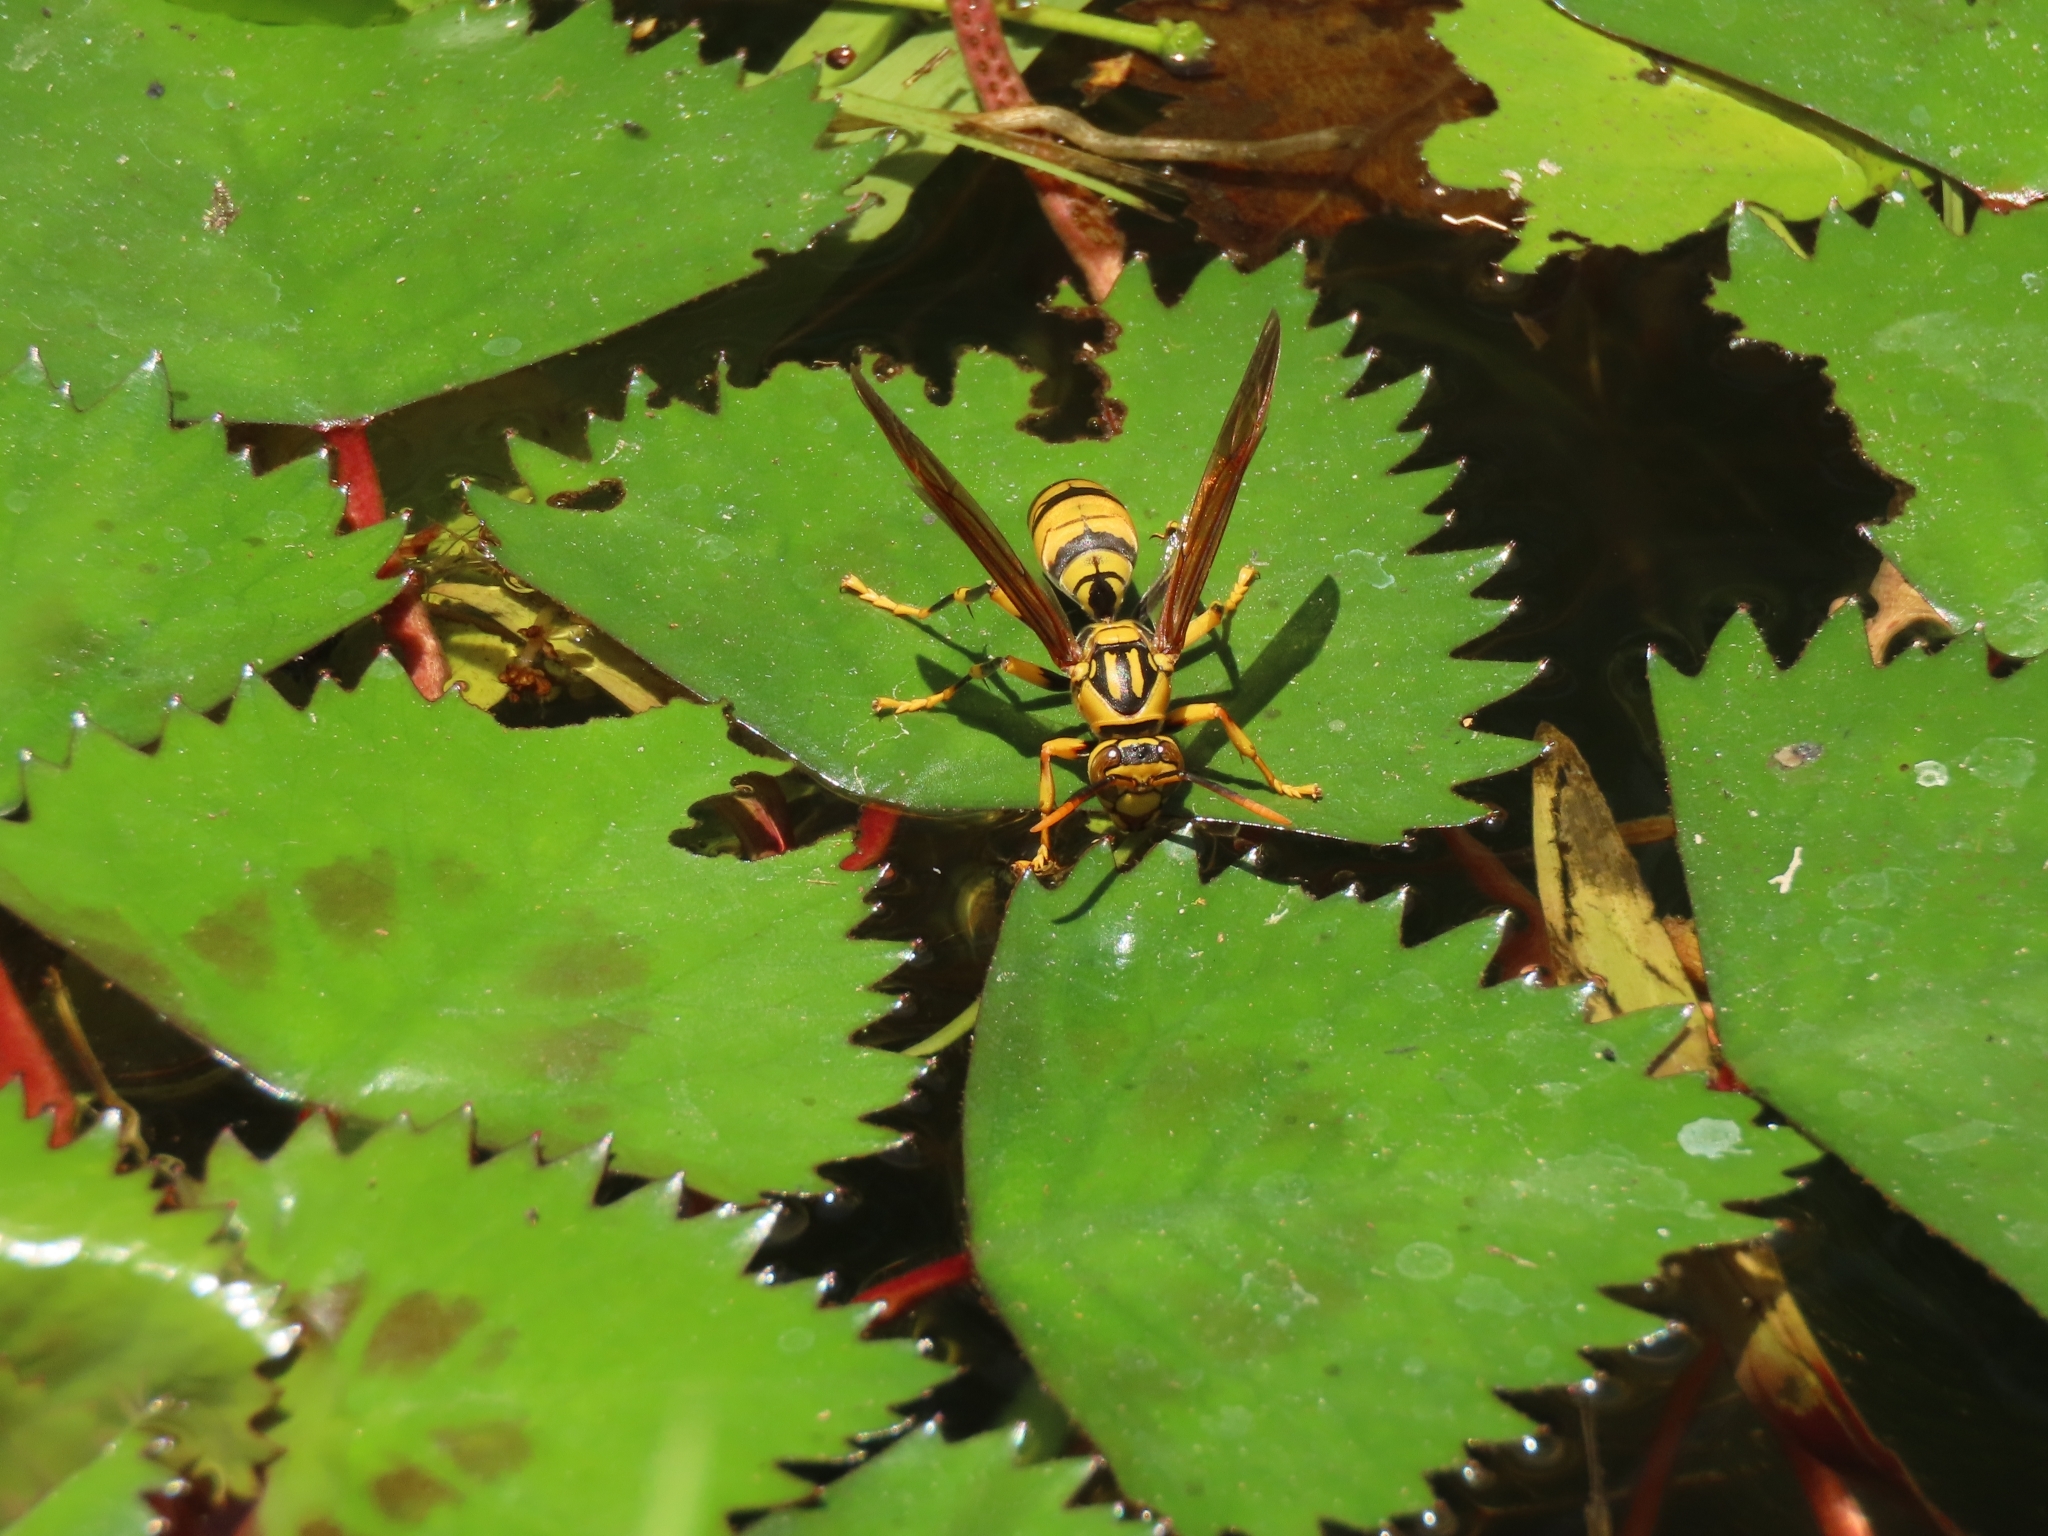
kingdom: Animalia
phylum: Arthropoda
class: Insecta
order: Hymenoptera
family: Eumenidae
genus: Polistes
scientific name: Polistes rothneyi
